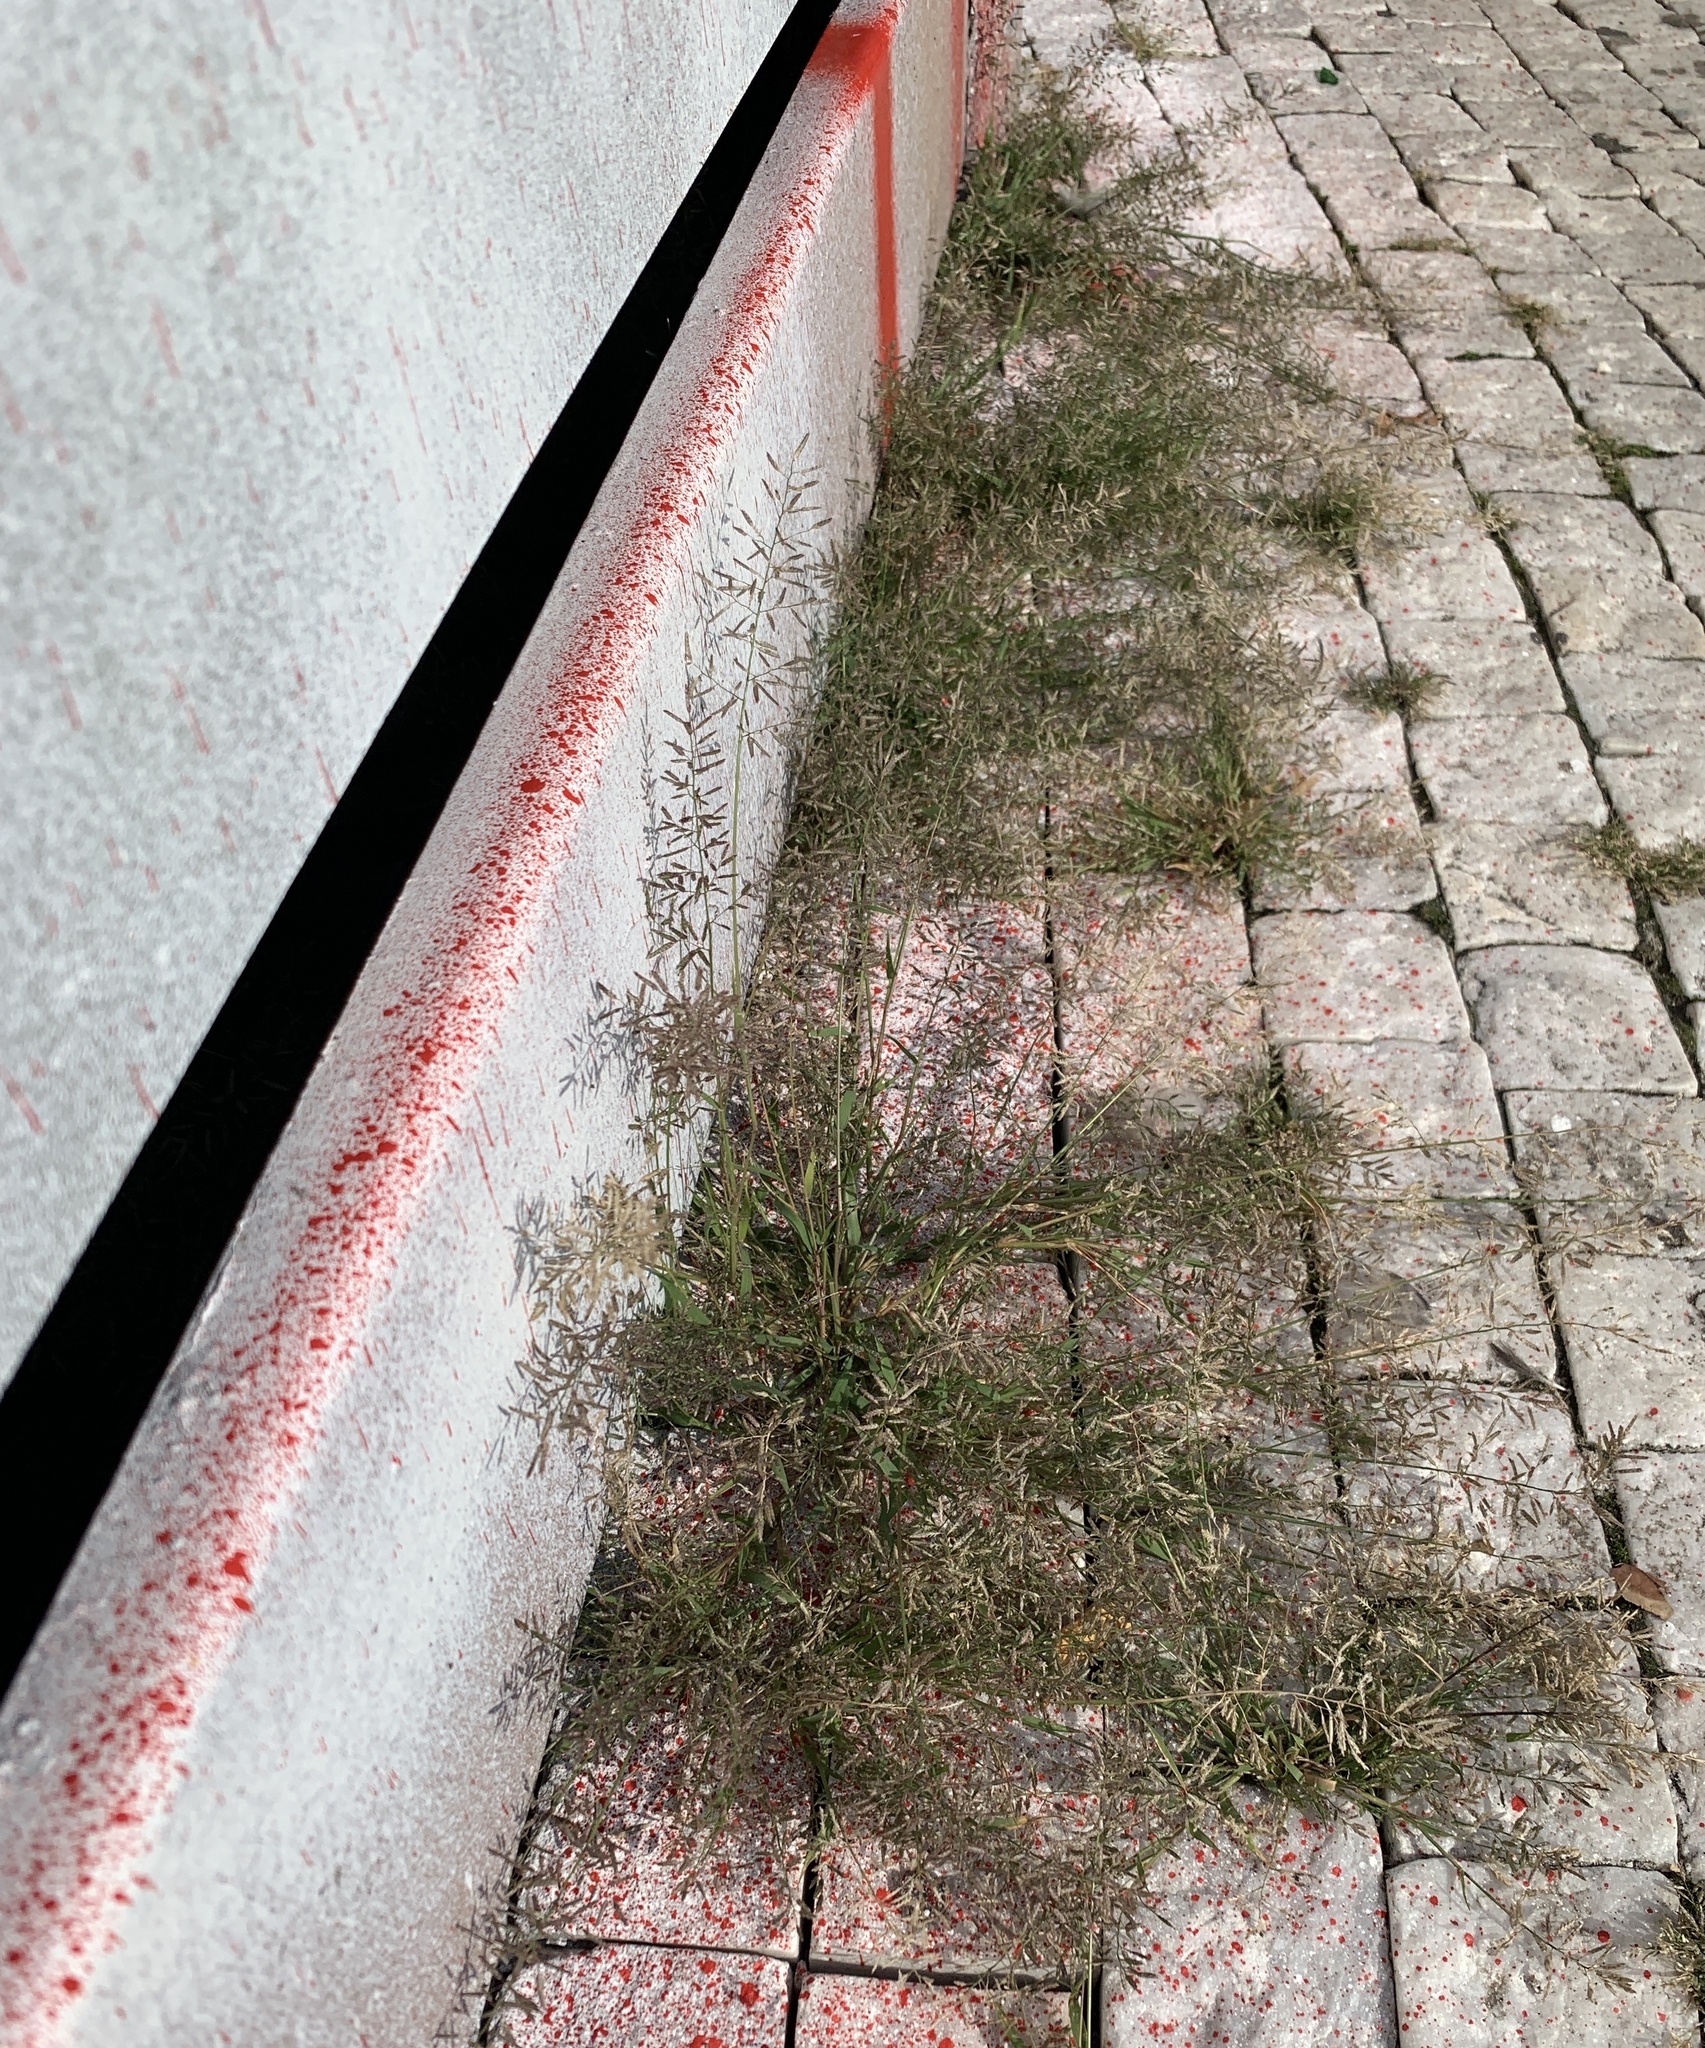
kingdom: Plantae
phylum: Tracheophyta
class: Liliopsida
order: Poales
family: Poaceae
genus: Eragrostis
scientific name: Eragrostis minor
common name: Small love-grass
